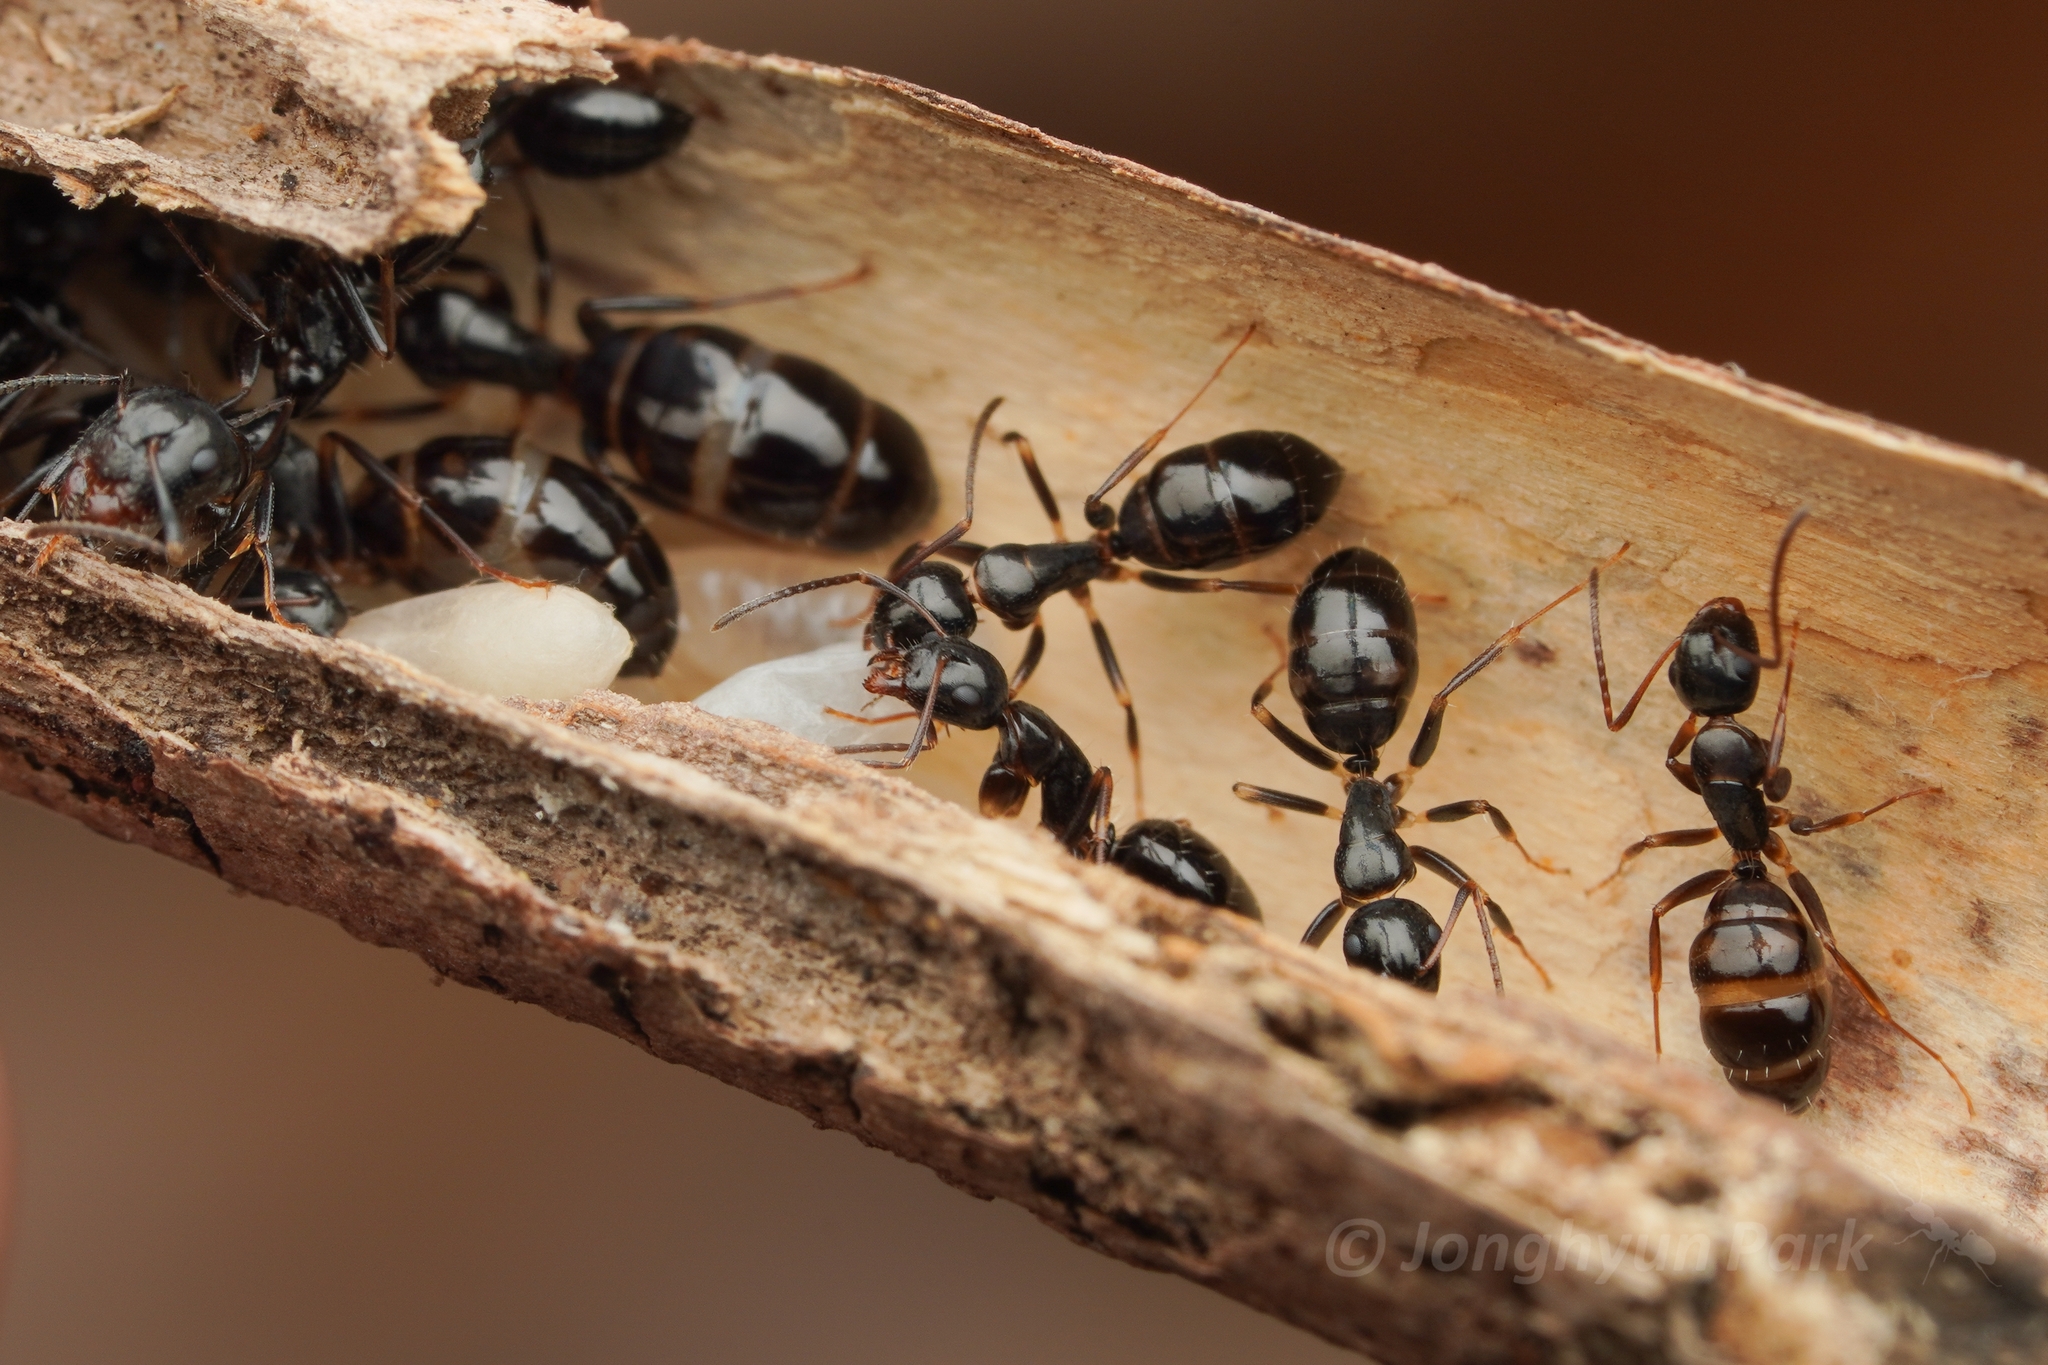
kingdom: Animalia
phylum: Arthropoda
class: Insecta
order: Hymenoptera
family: Formicidae
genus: Camponotus
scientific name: Camponotus
